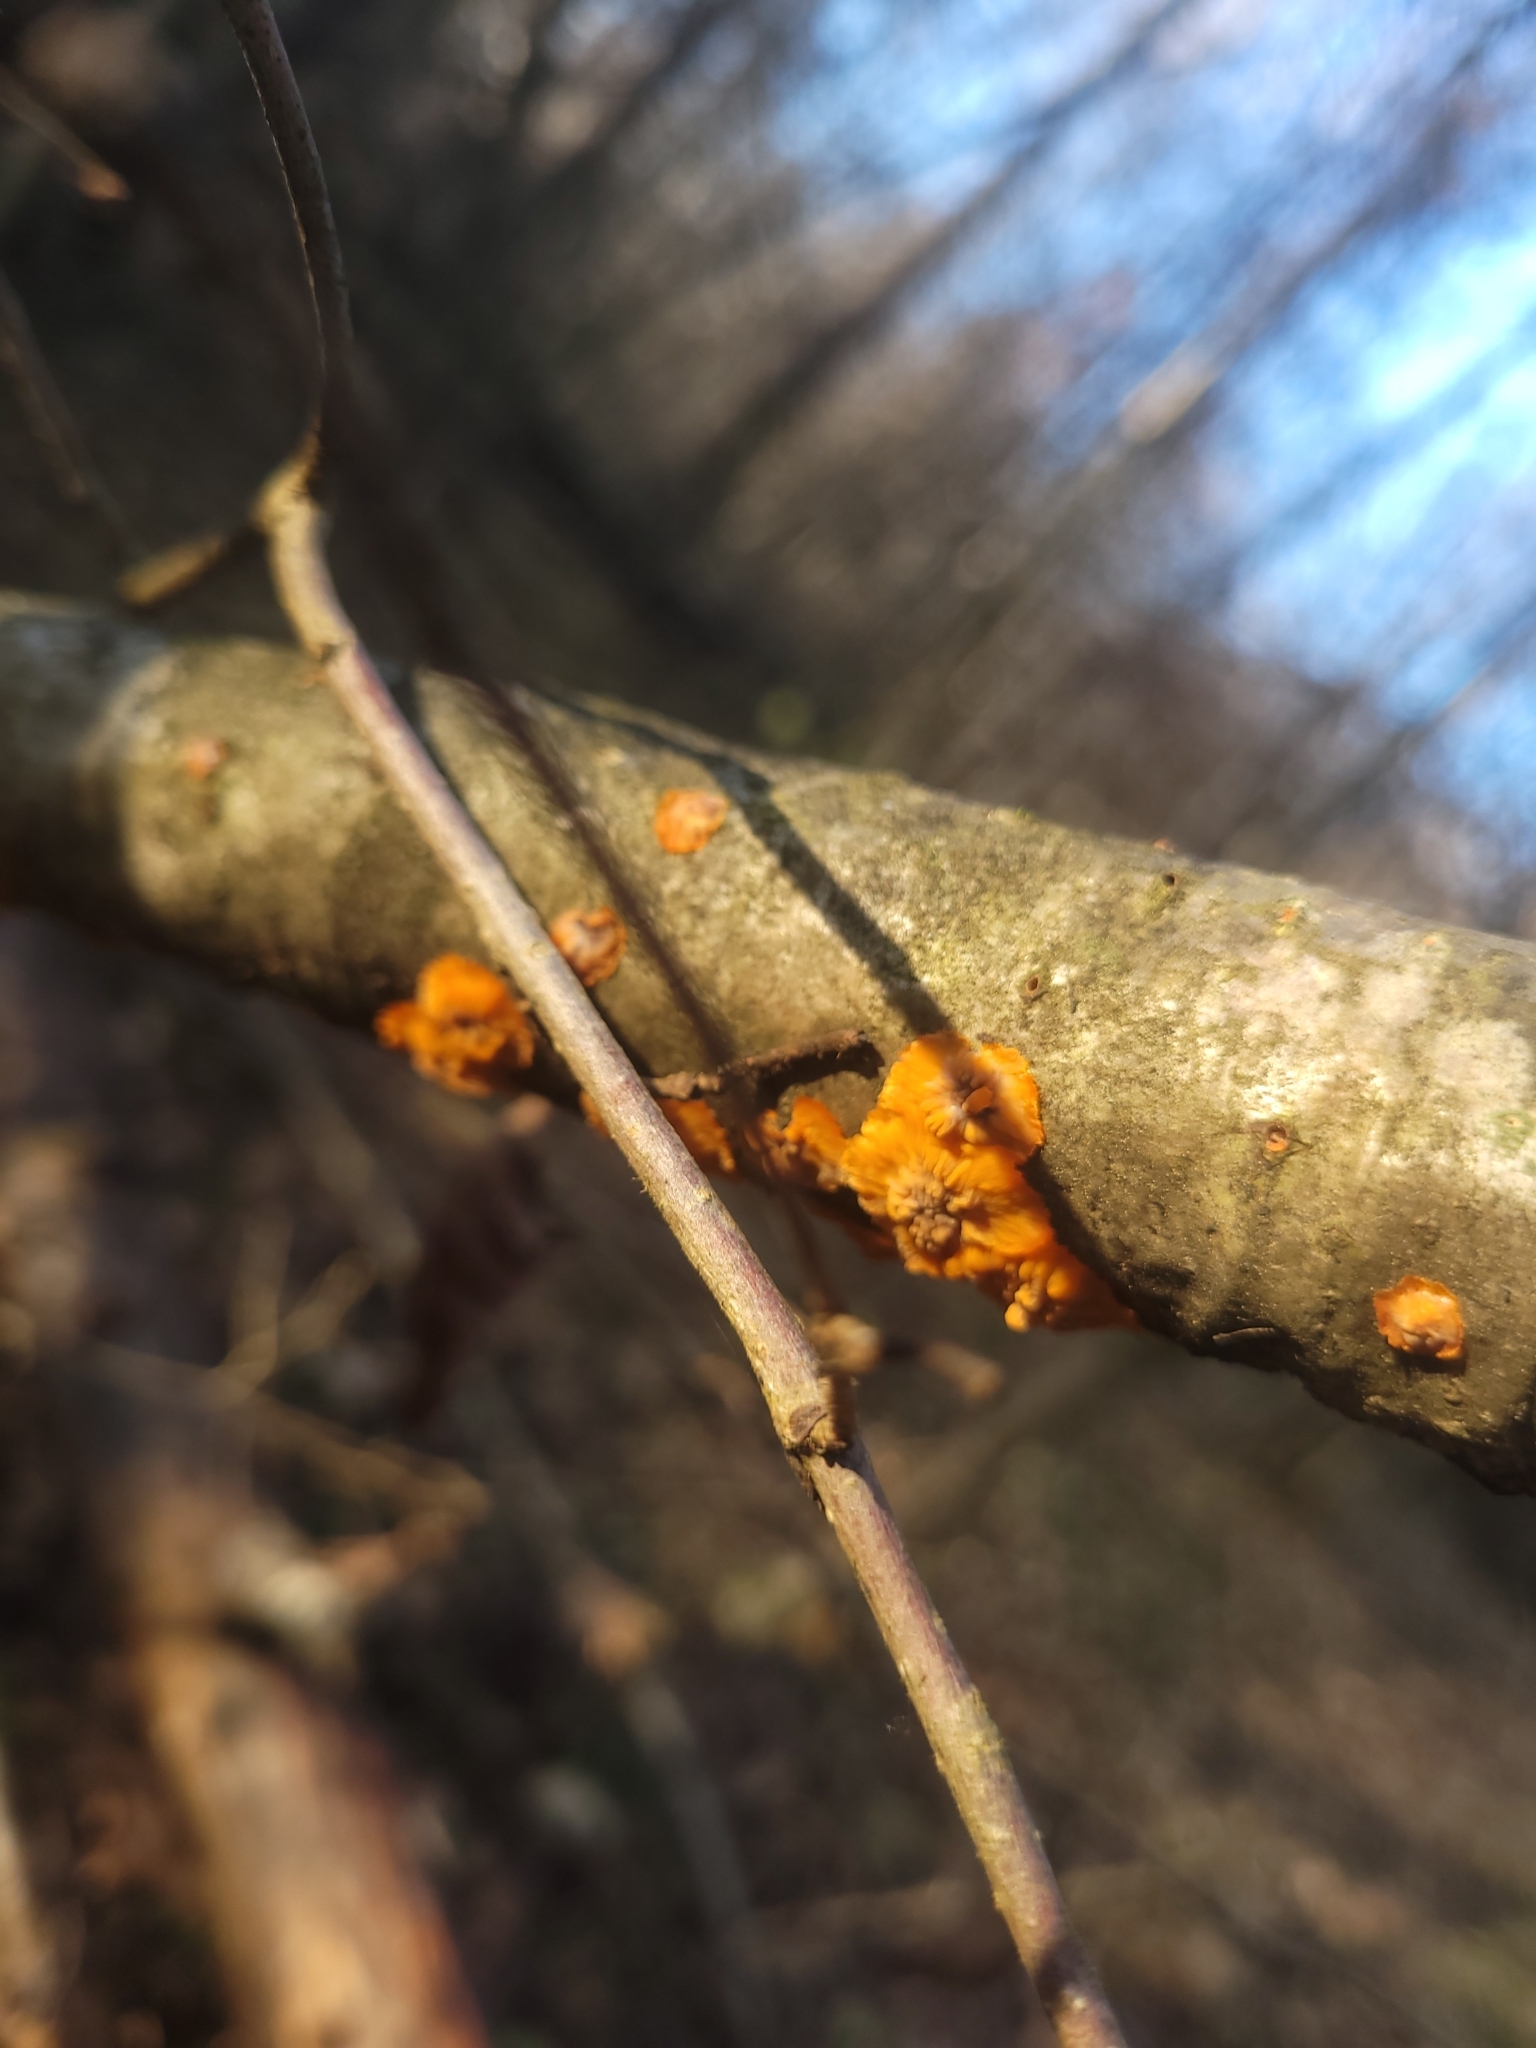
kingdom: Fungi
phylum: Basidiomycota
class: Agaricomycetes
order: Polyporales
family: Meruliaceae
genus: Phlebia
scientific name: Phlebia radiata
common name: Wrinkled crust
